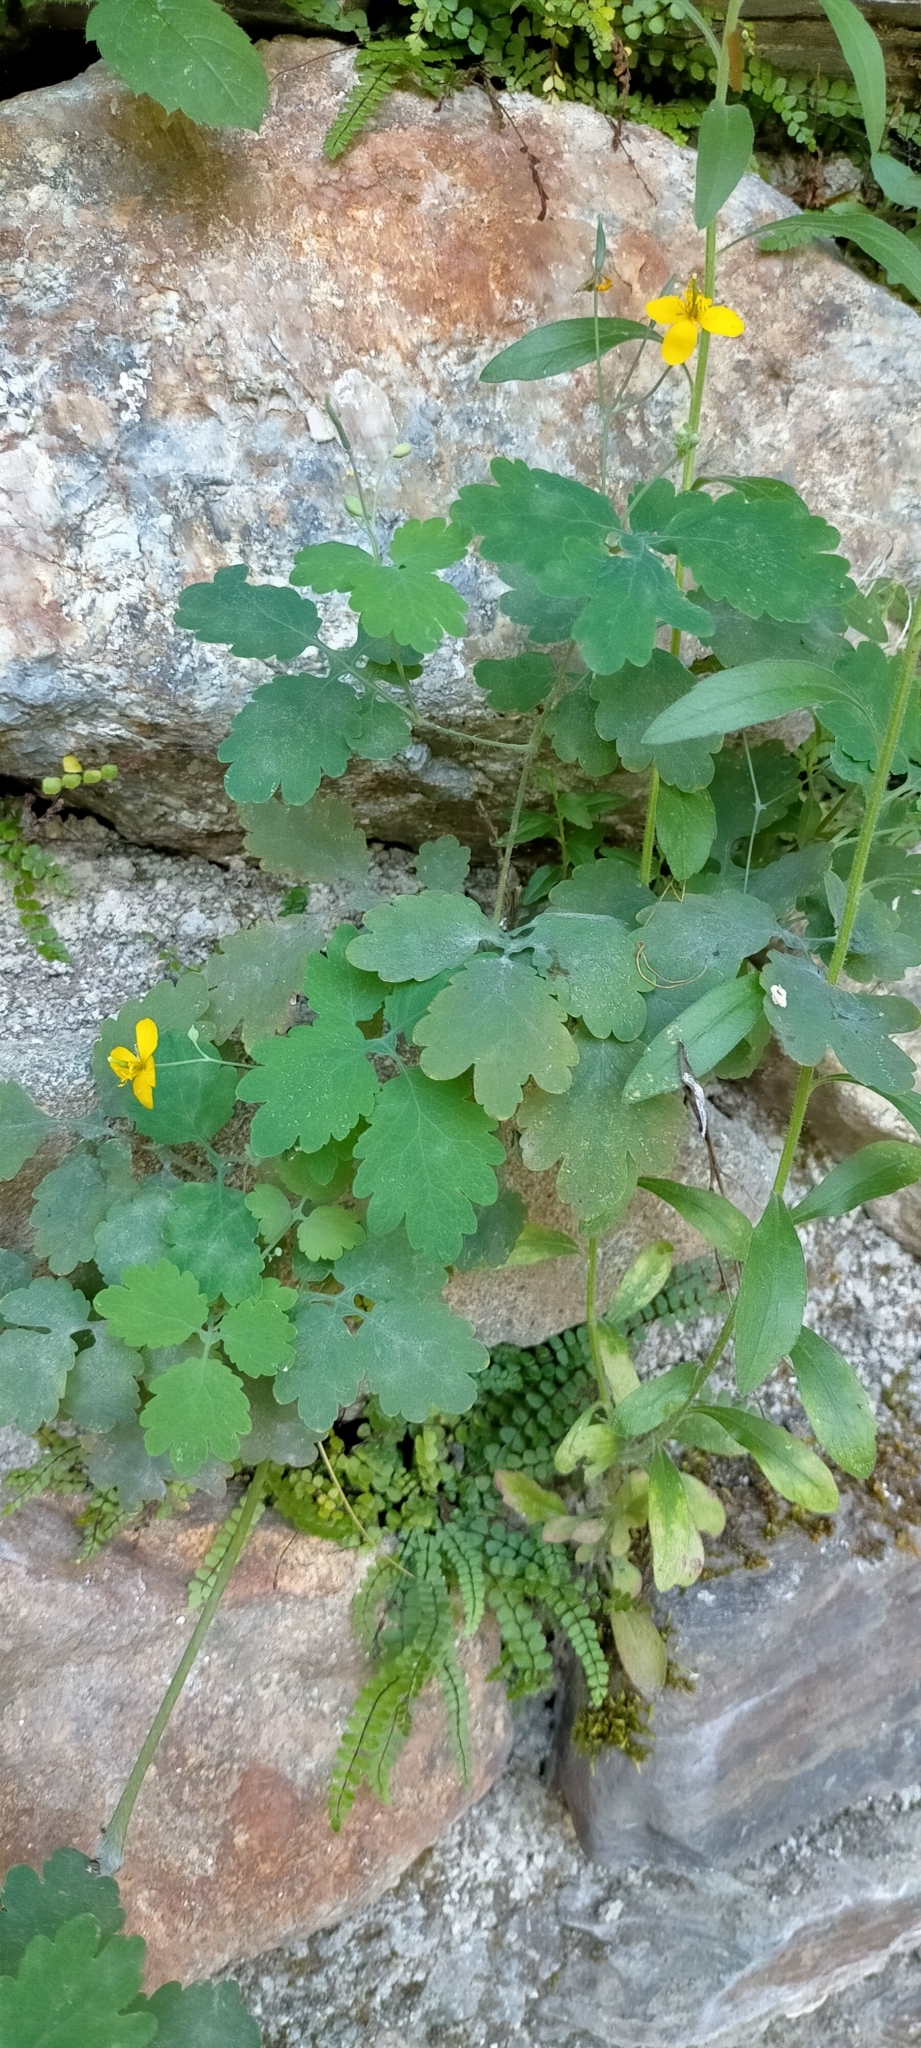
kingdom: Plantae
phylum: Tracheophyta
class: Magnoliopsida
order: Ranunculales
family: Papaveraceae
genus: Chelidonium
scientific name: Chelidonium majus
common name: Greater celandine
